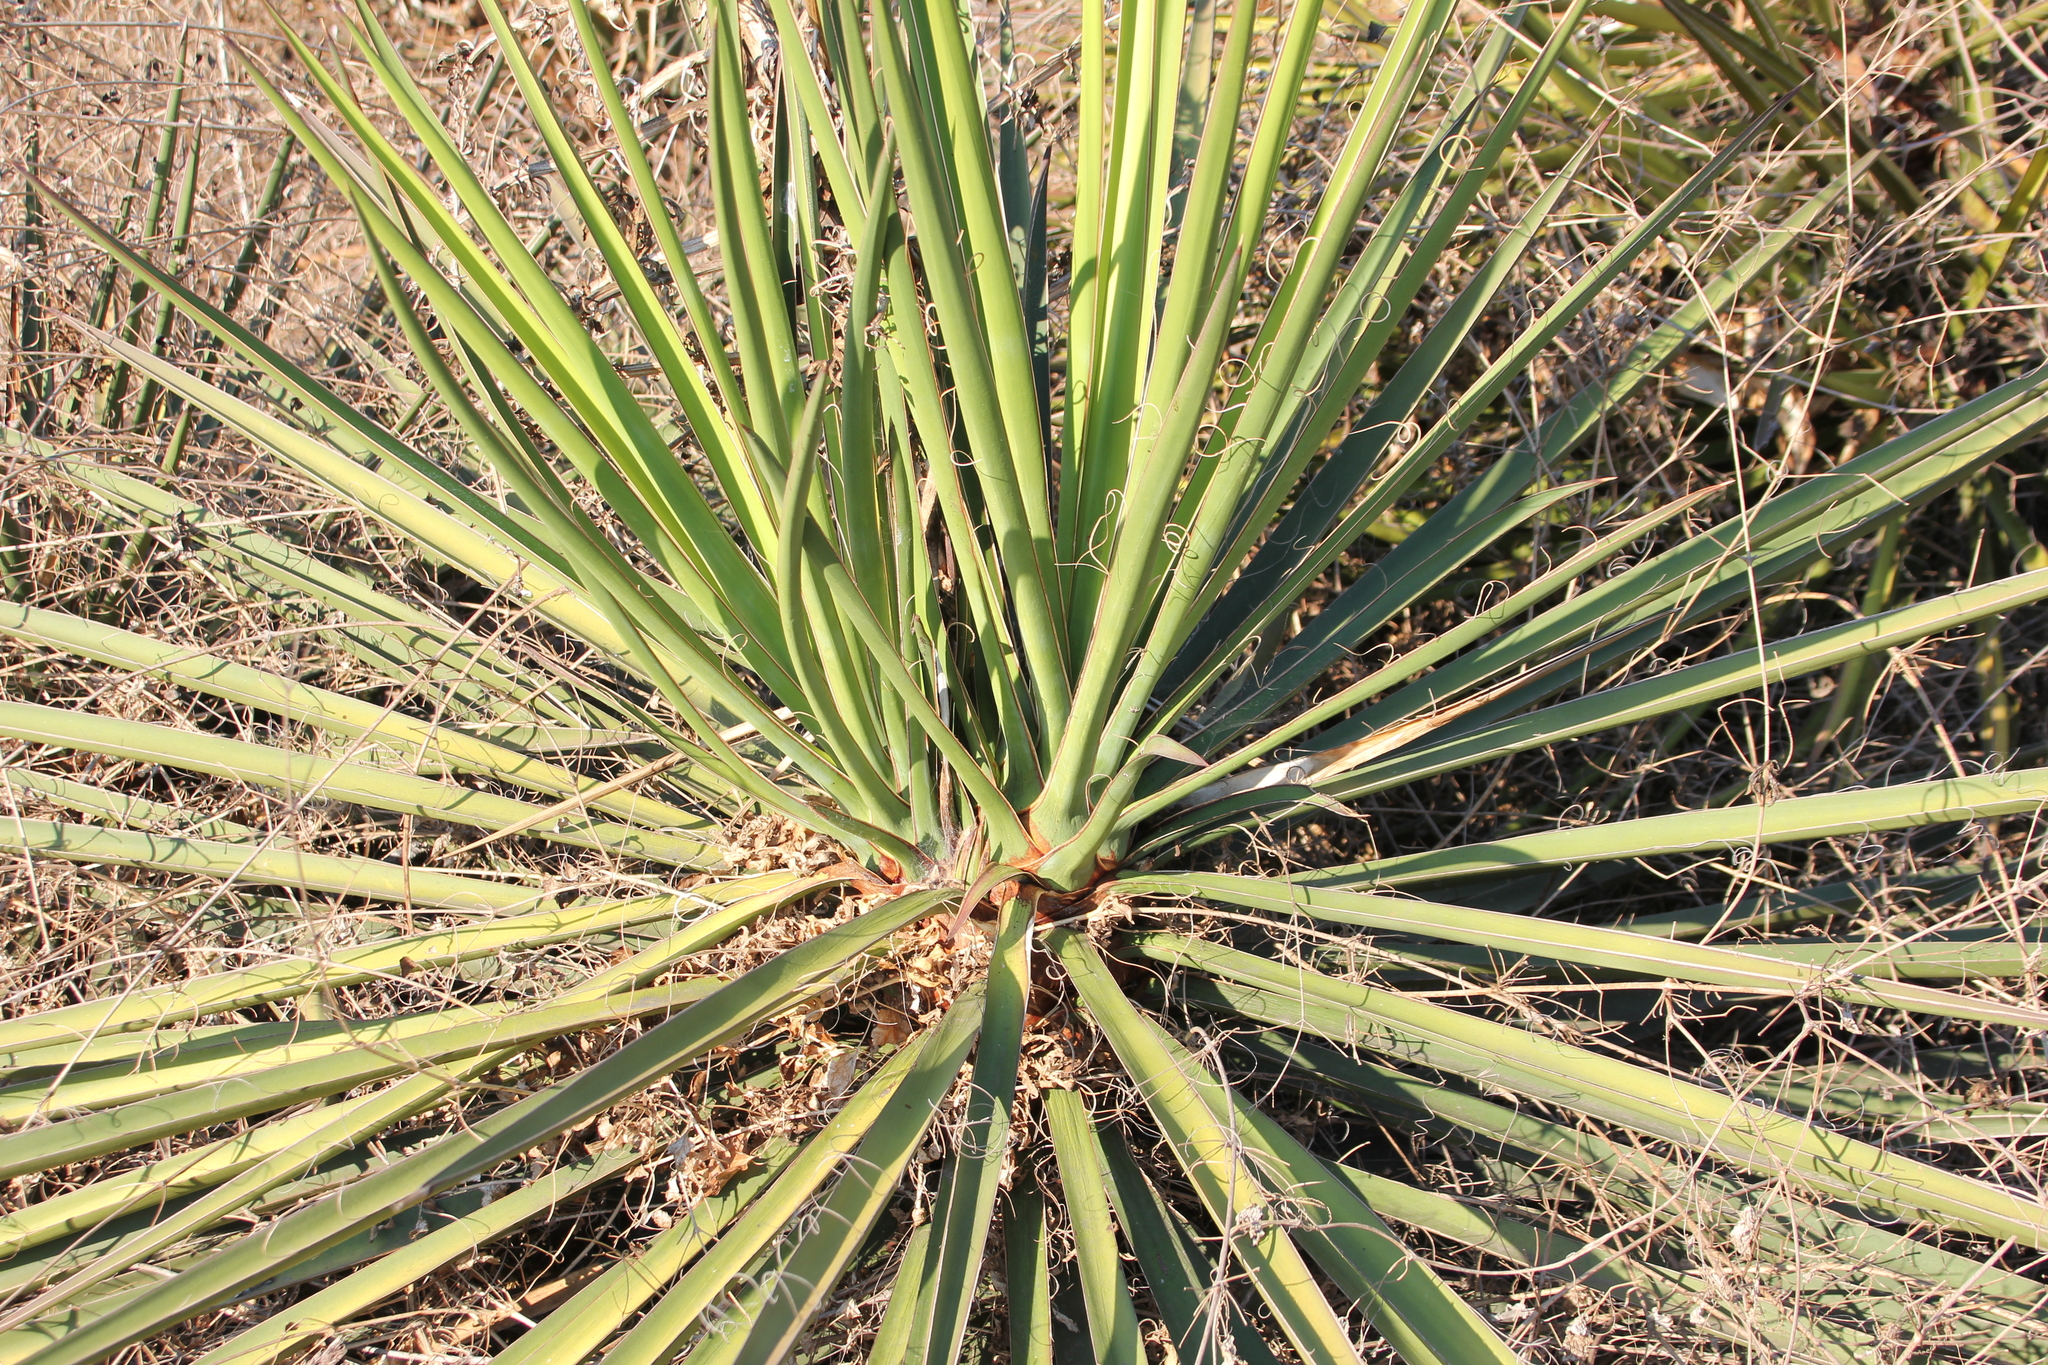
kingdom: Plantae
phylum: Tracheophyta
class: Liliopsida
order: Asparagales
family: Asparagaceae
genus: Yucca
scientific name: Yucca schidigera
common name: Mojave yucca
